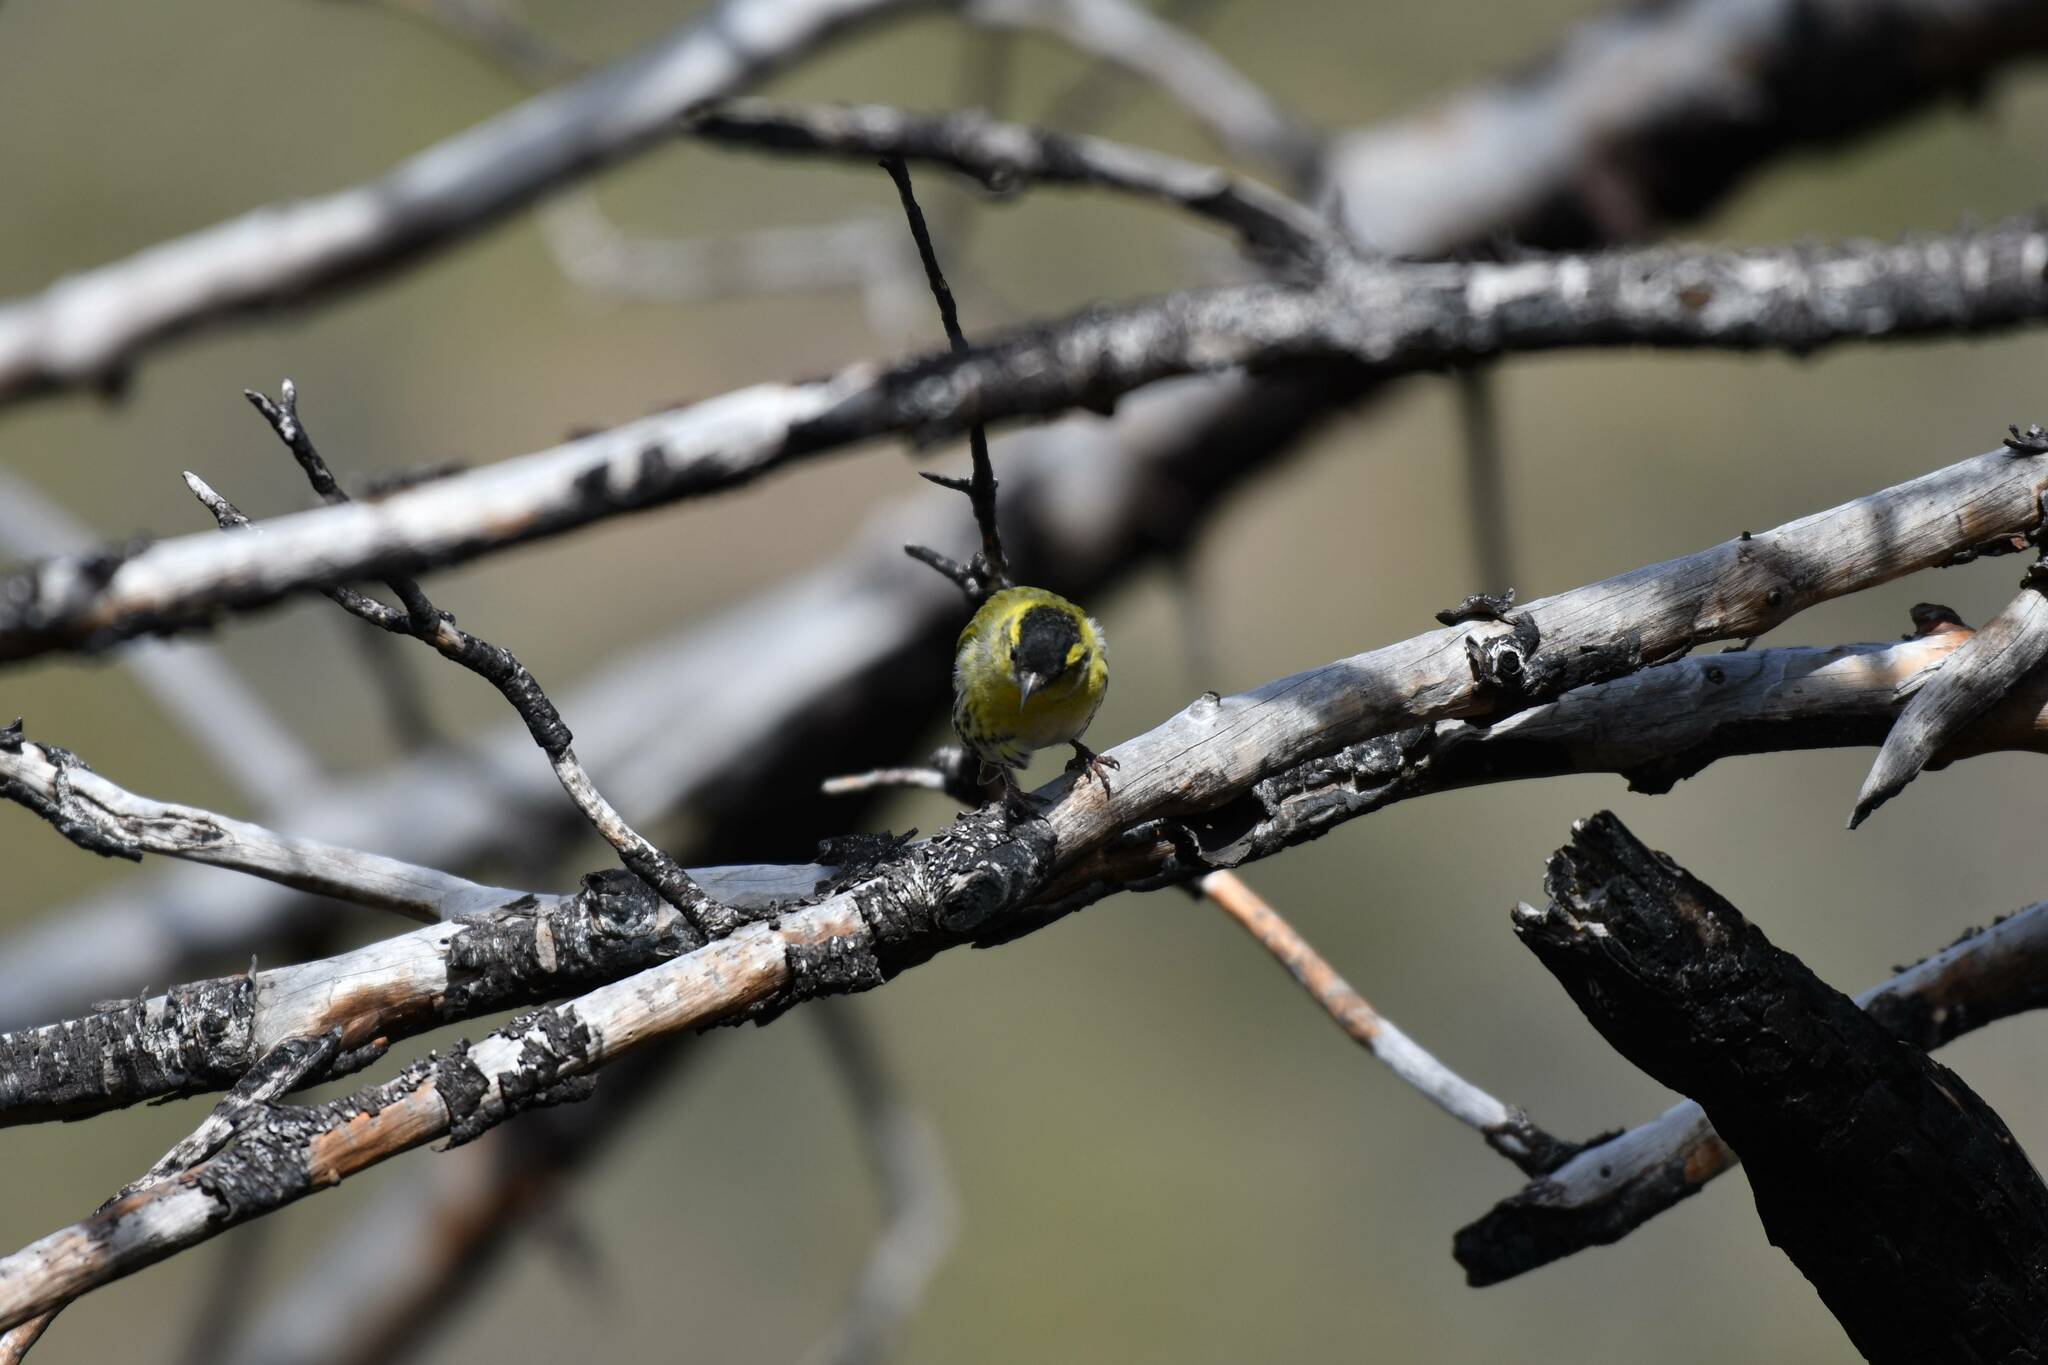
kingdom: Animalia
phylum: Chordata
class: Aves
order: Passeriformes
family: Fringillidae
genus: Spinus
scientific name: Spinus spinus
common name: Eurasian siskin
